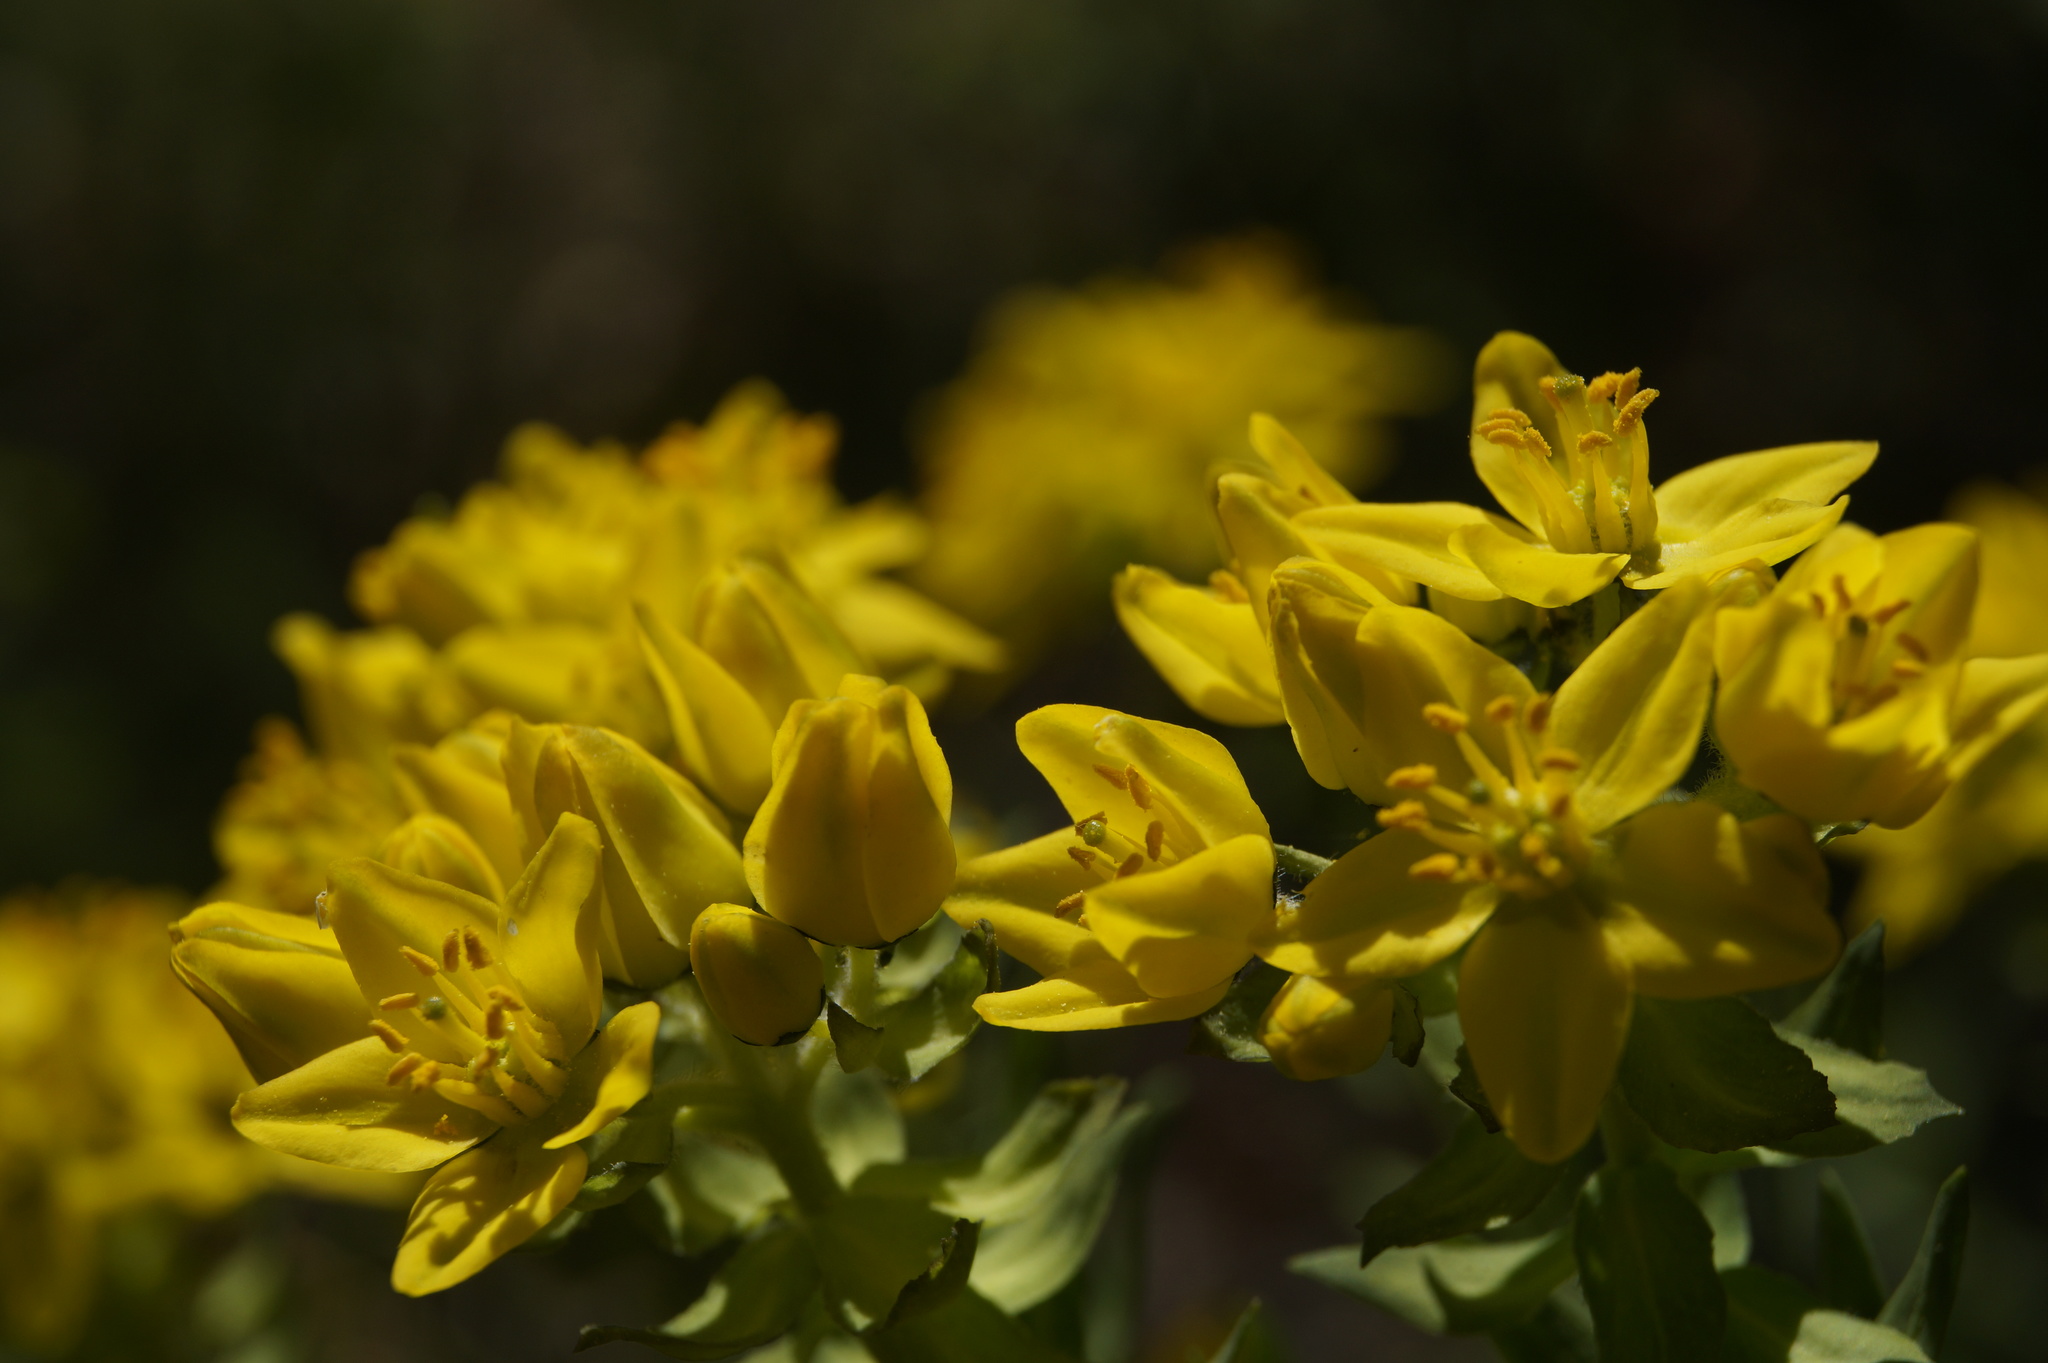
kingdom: Plantae
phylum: Tracheophyta
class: Magnoliopsida
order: Sapindales
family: Rutaceae
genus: Haplophyllum
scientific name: Haplophyllum suaveolens
